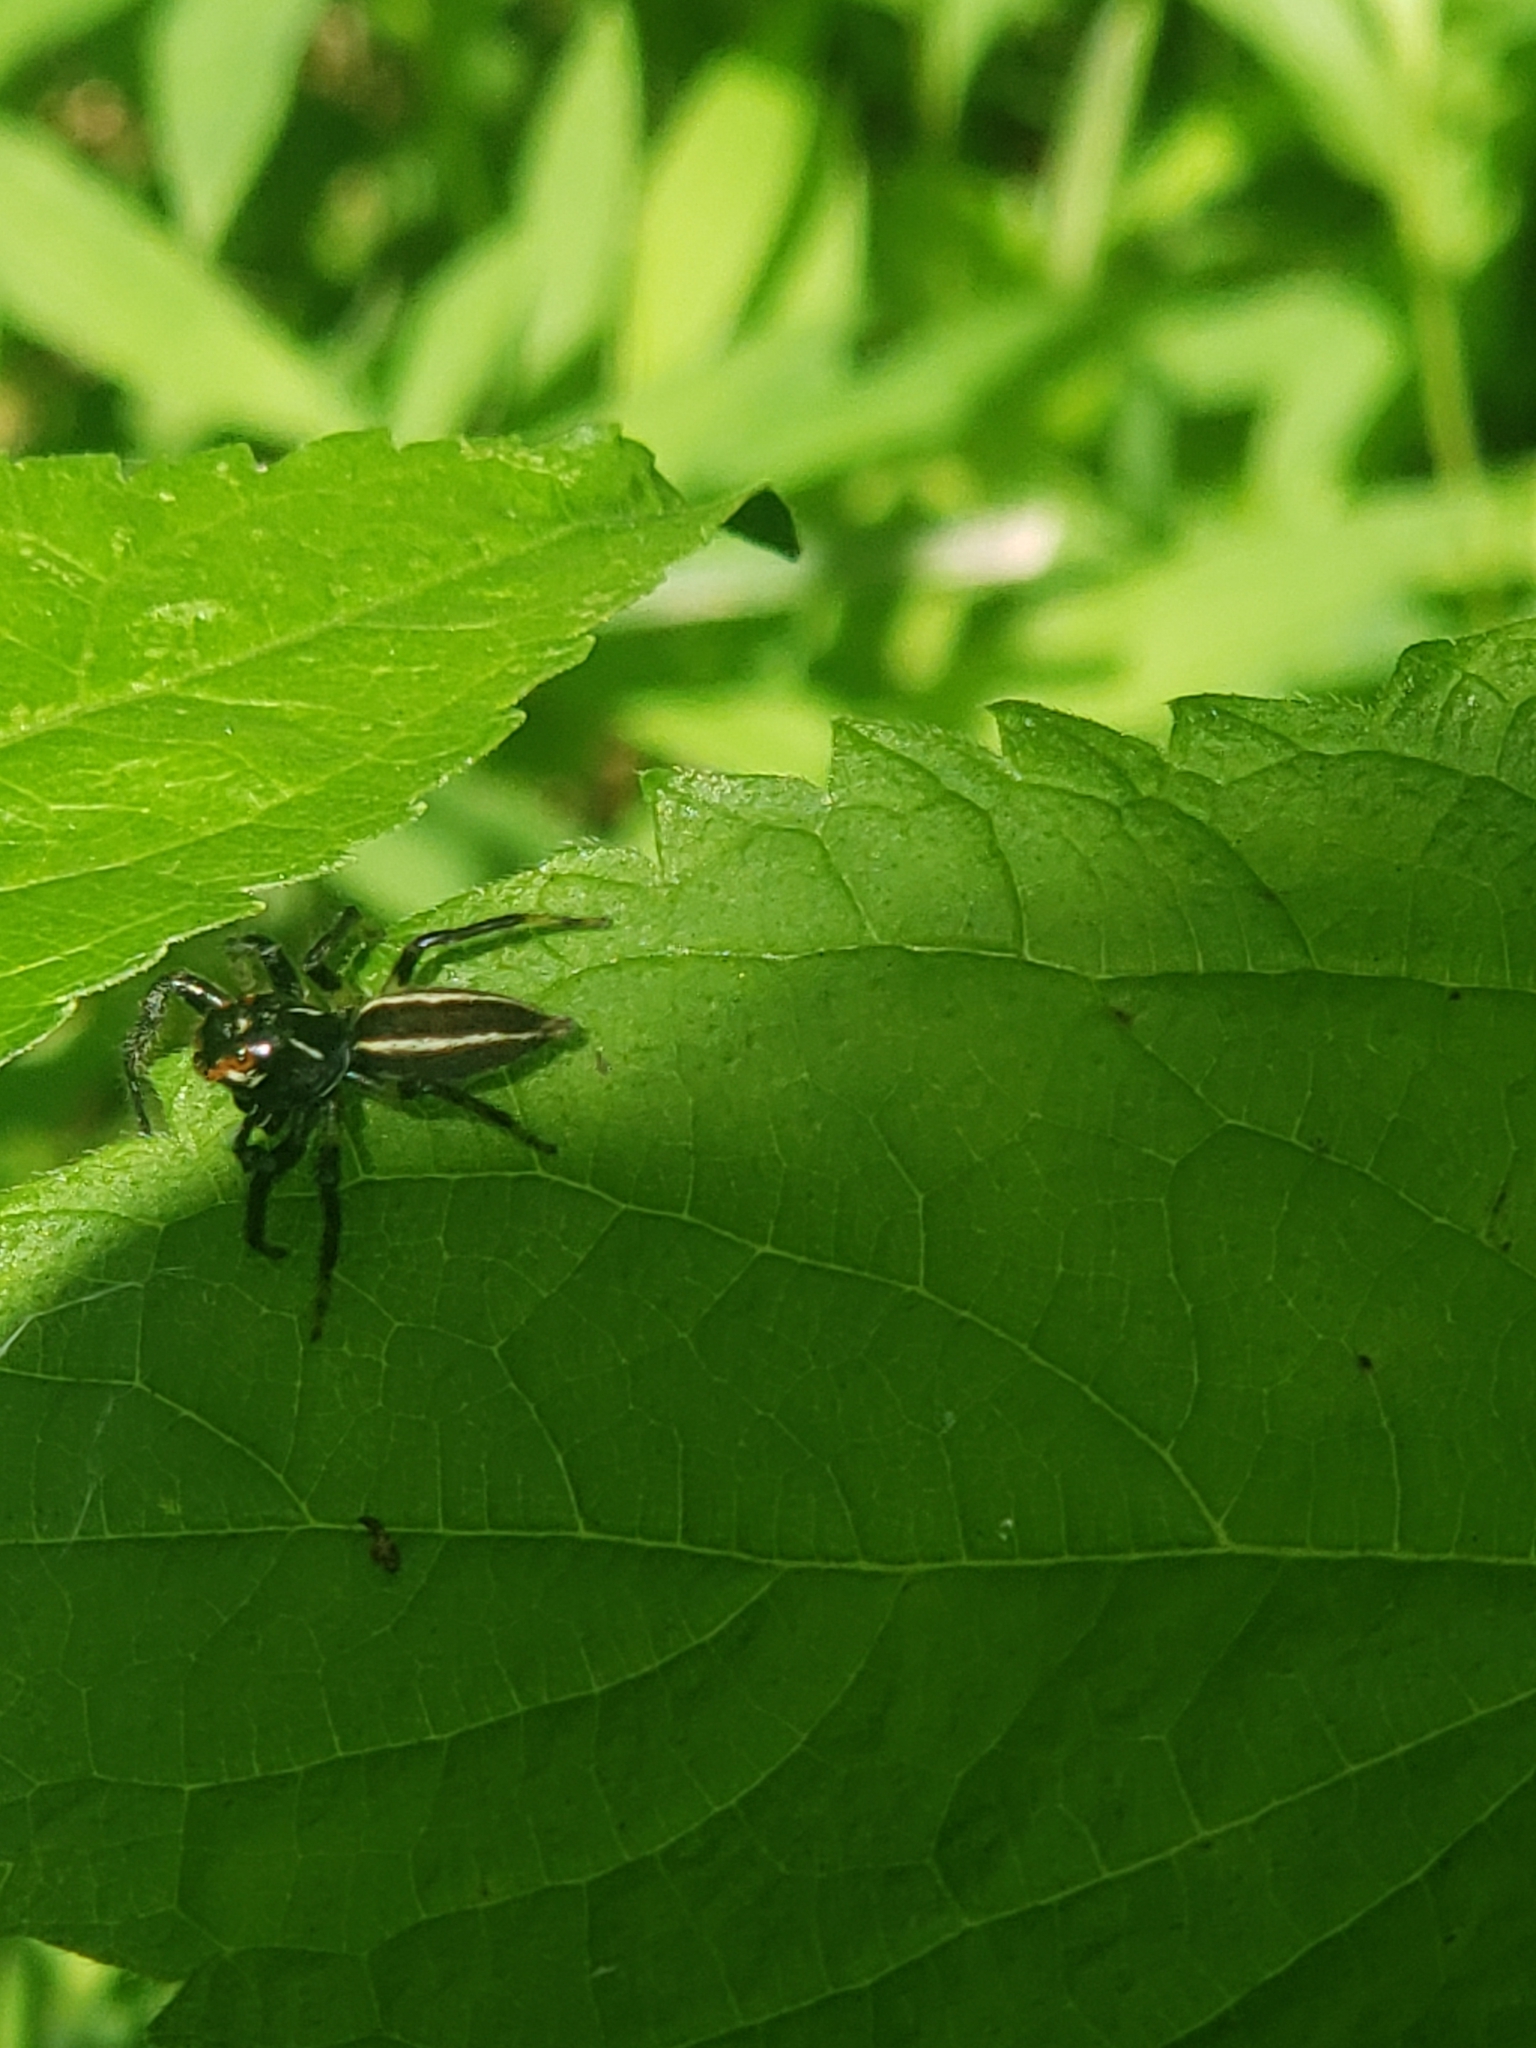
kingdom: Animalia
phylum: Arthropoda
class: Arachnida
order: Araneae
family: Salticidae
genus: Colonus
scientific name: Colonus sylvanus
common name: Jumping spiders
